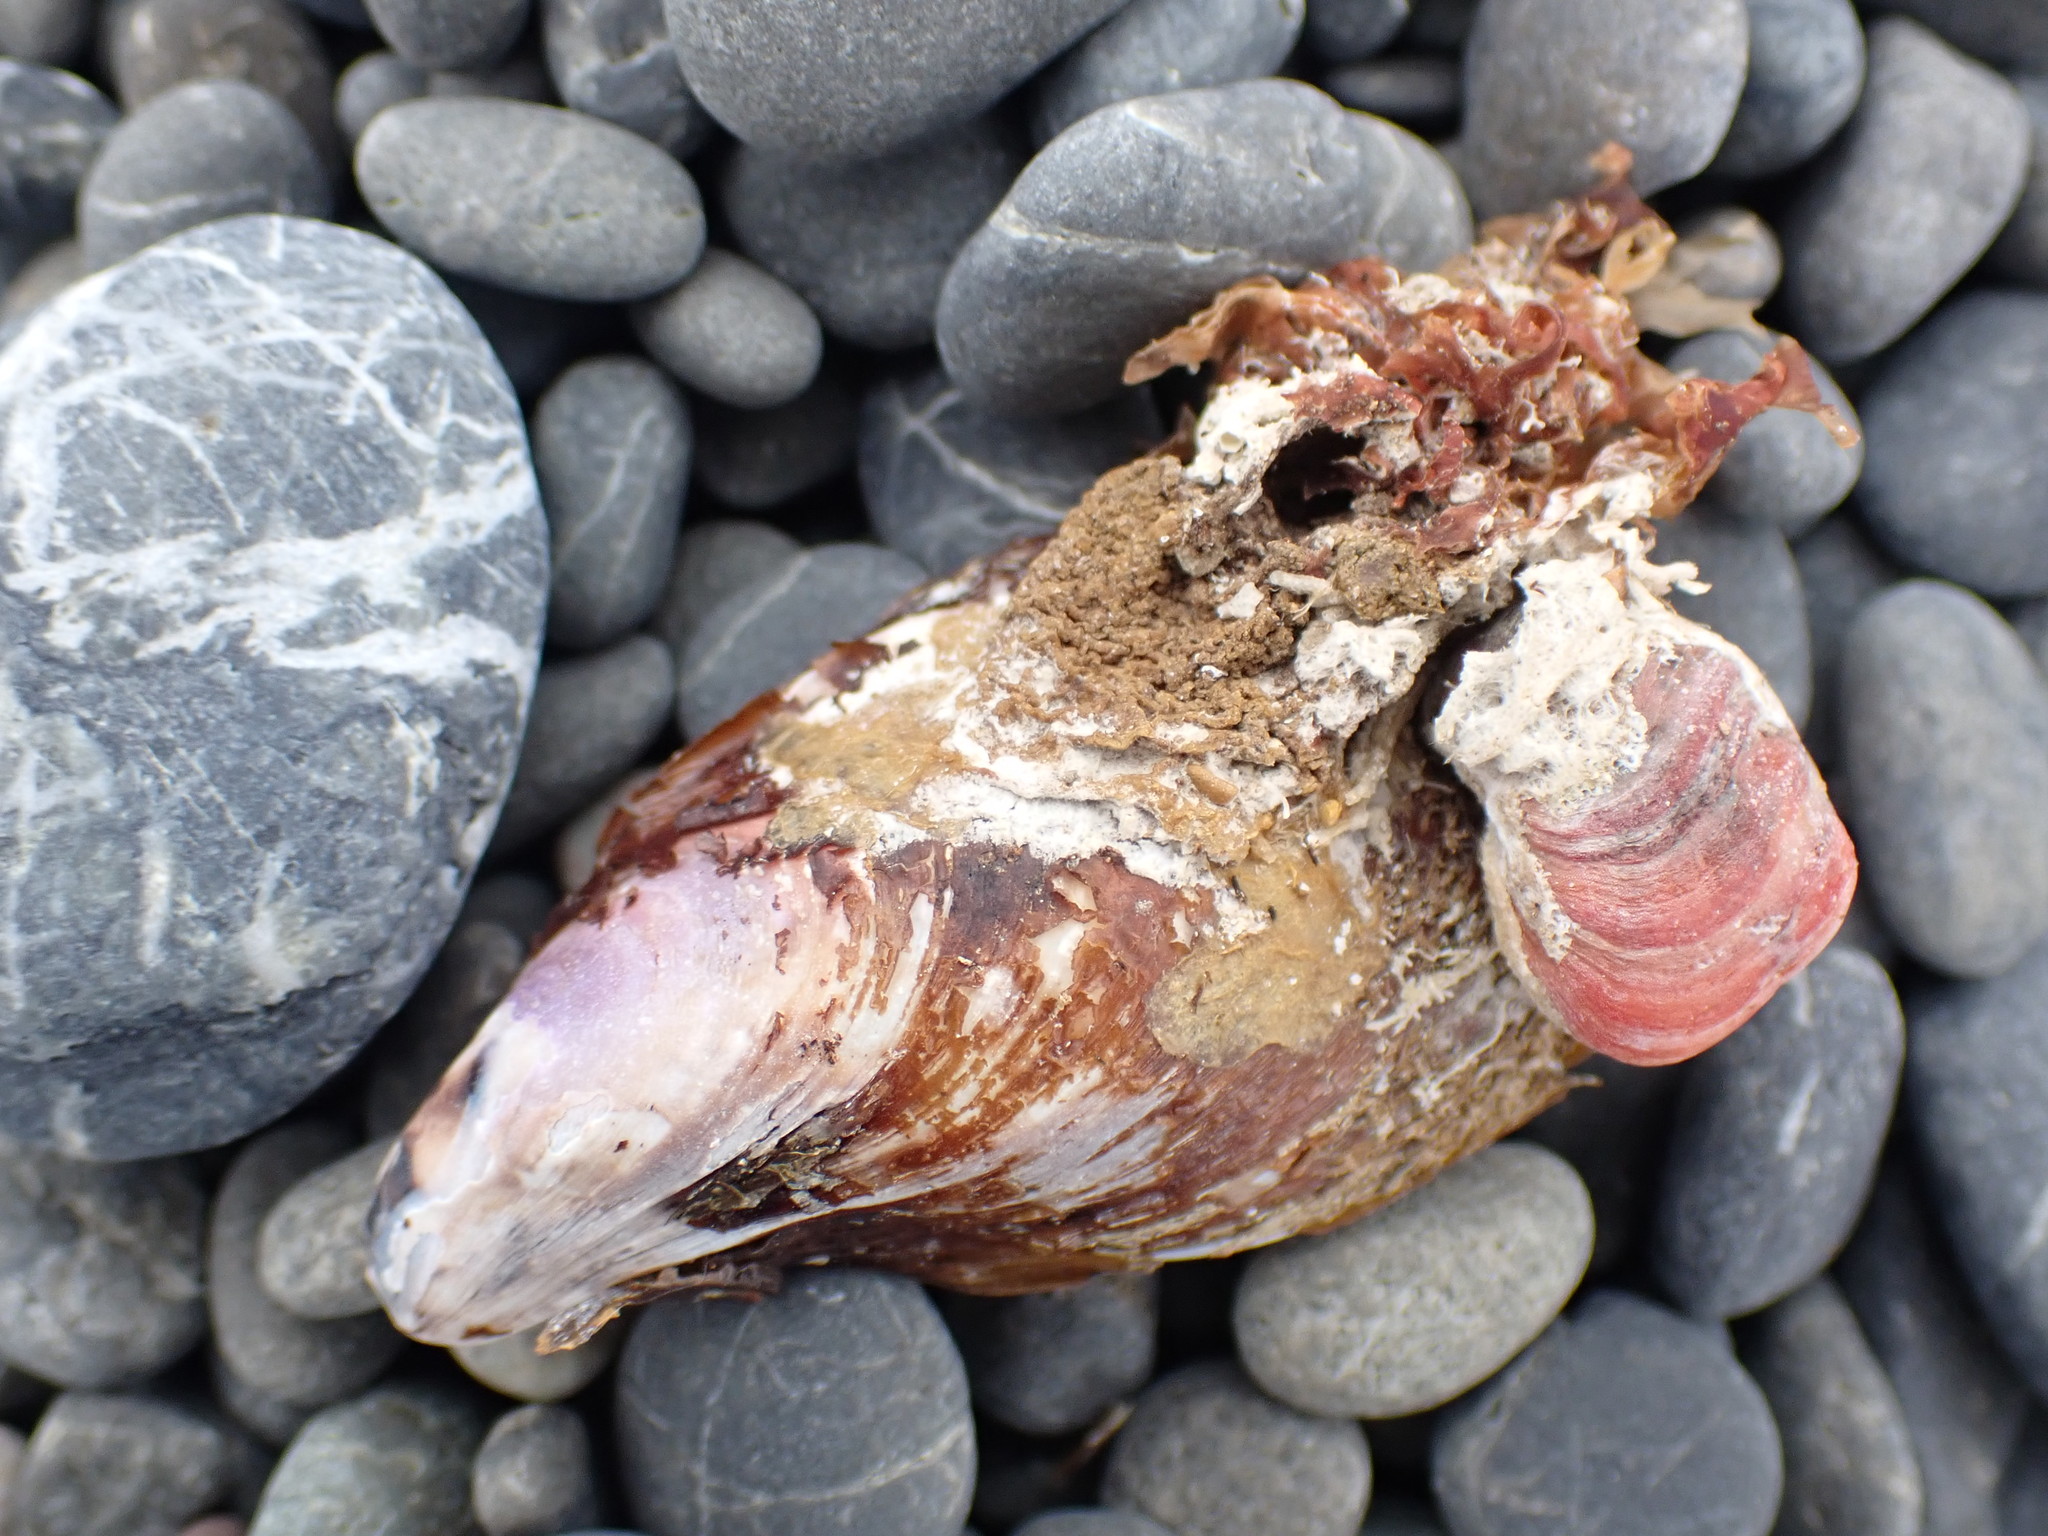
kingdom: Animalia
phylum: Mollusca
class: Bivalvia
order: Mytilida
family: Mytilidae
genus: Modiolus
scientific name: Modiolus areolatus
